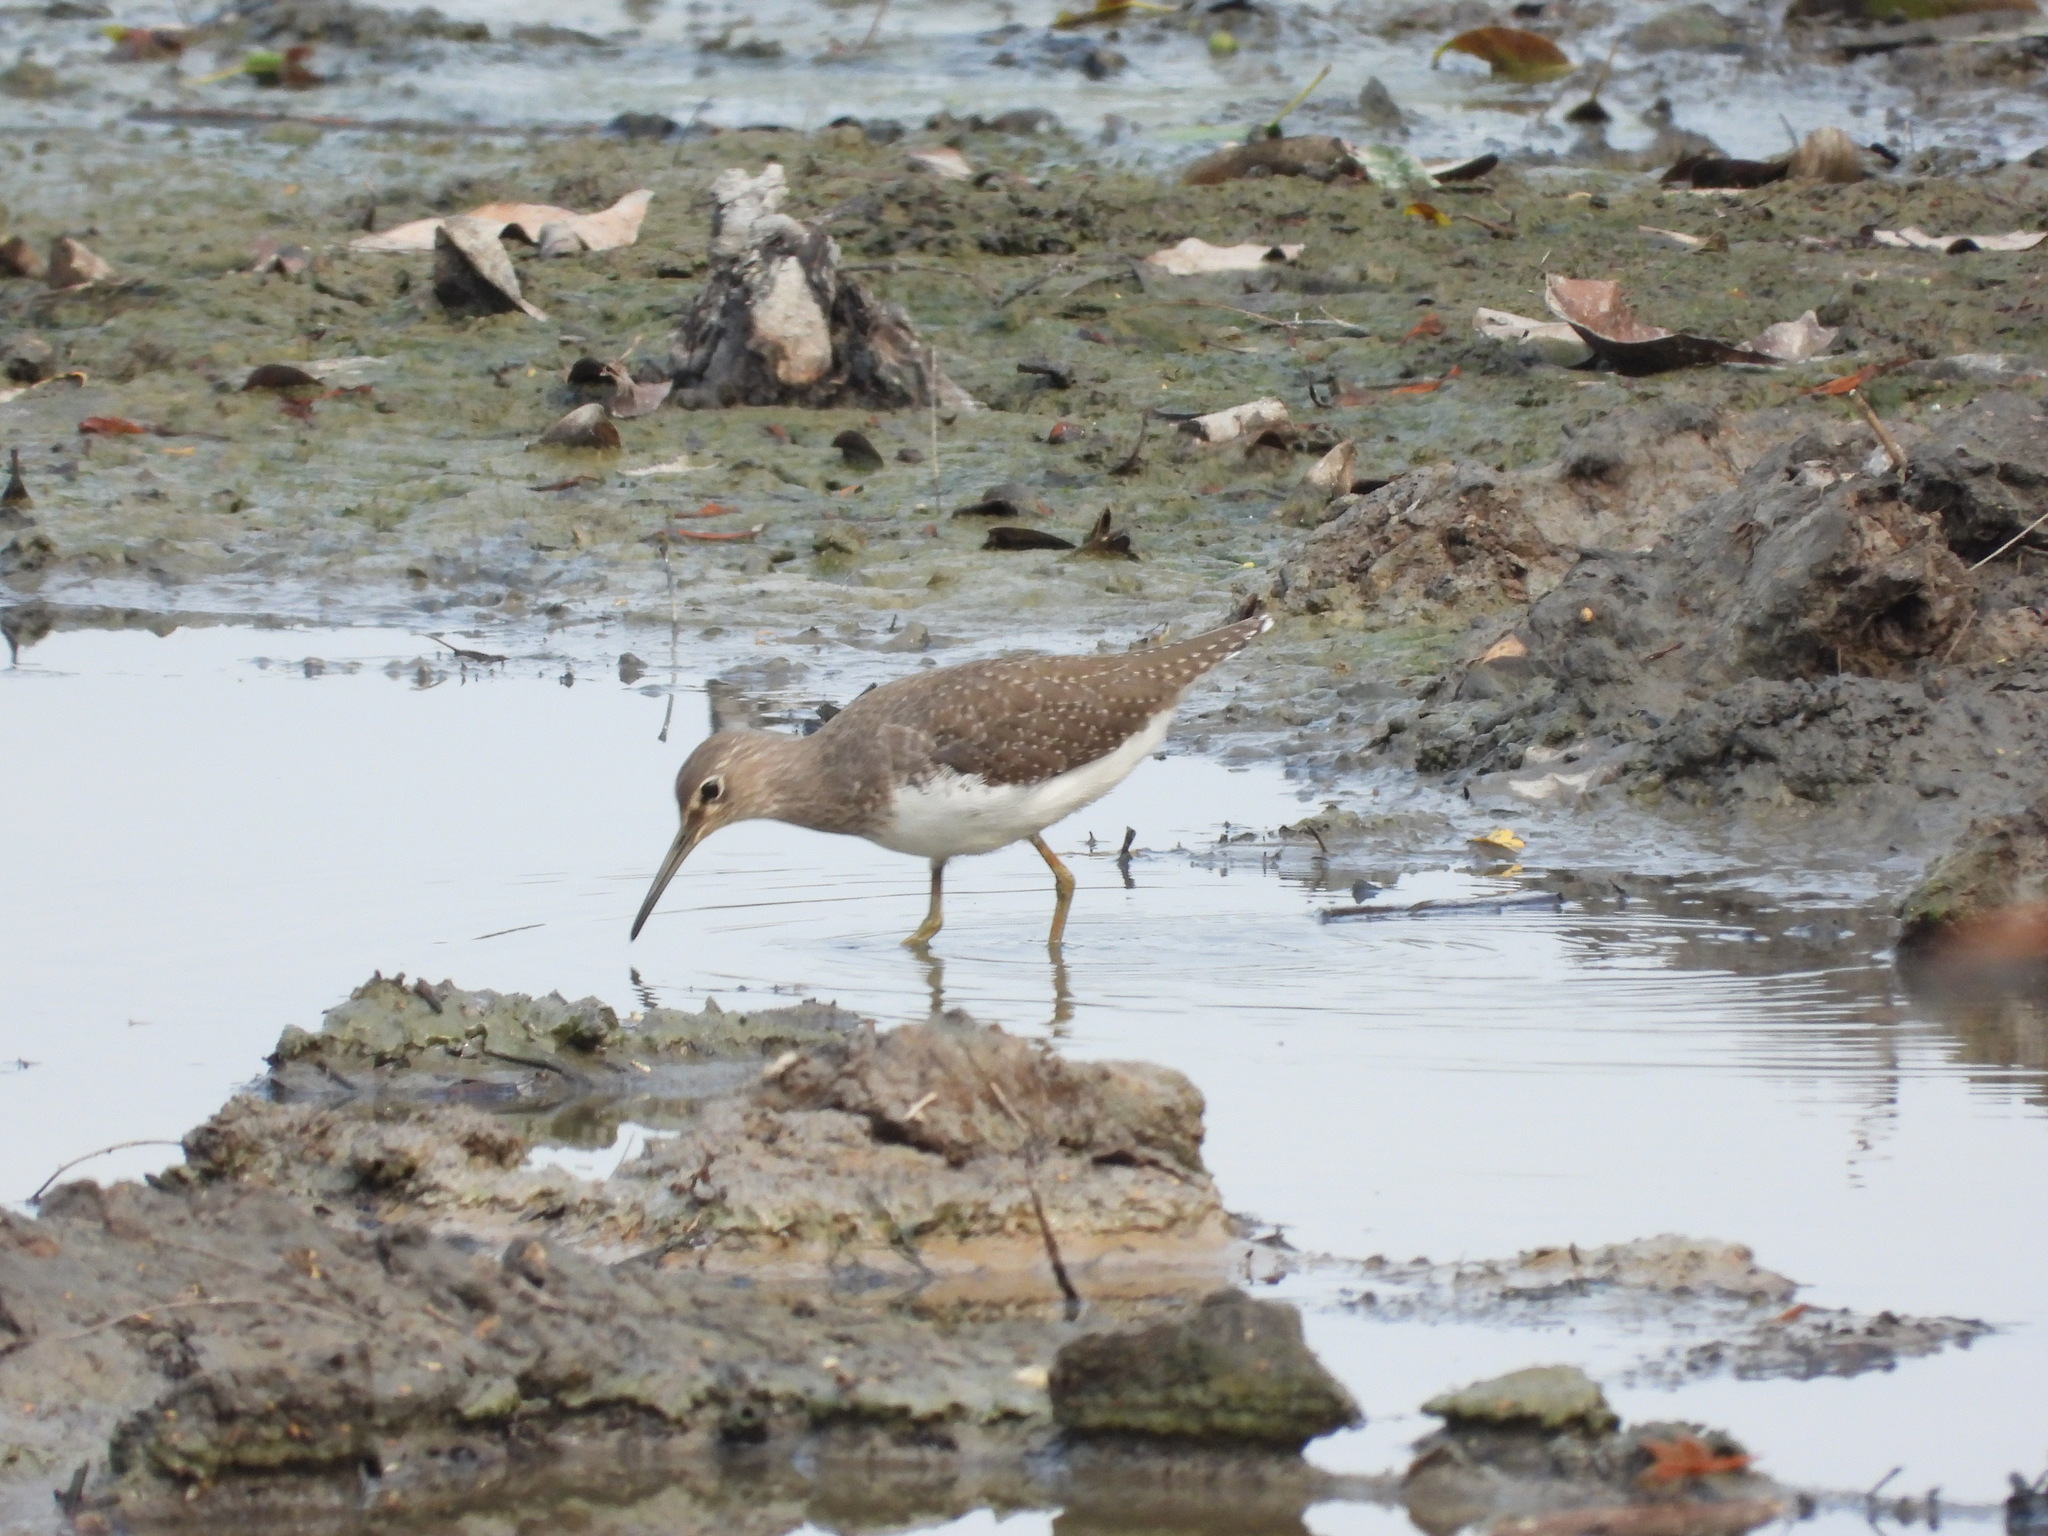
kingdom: Animalia
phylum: Chordata
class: Aves
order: Charadriiformes
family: Scolopacidae
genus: Tringa
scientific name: Tringa ochropus
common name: Green sandpiper
